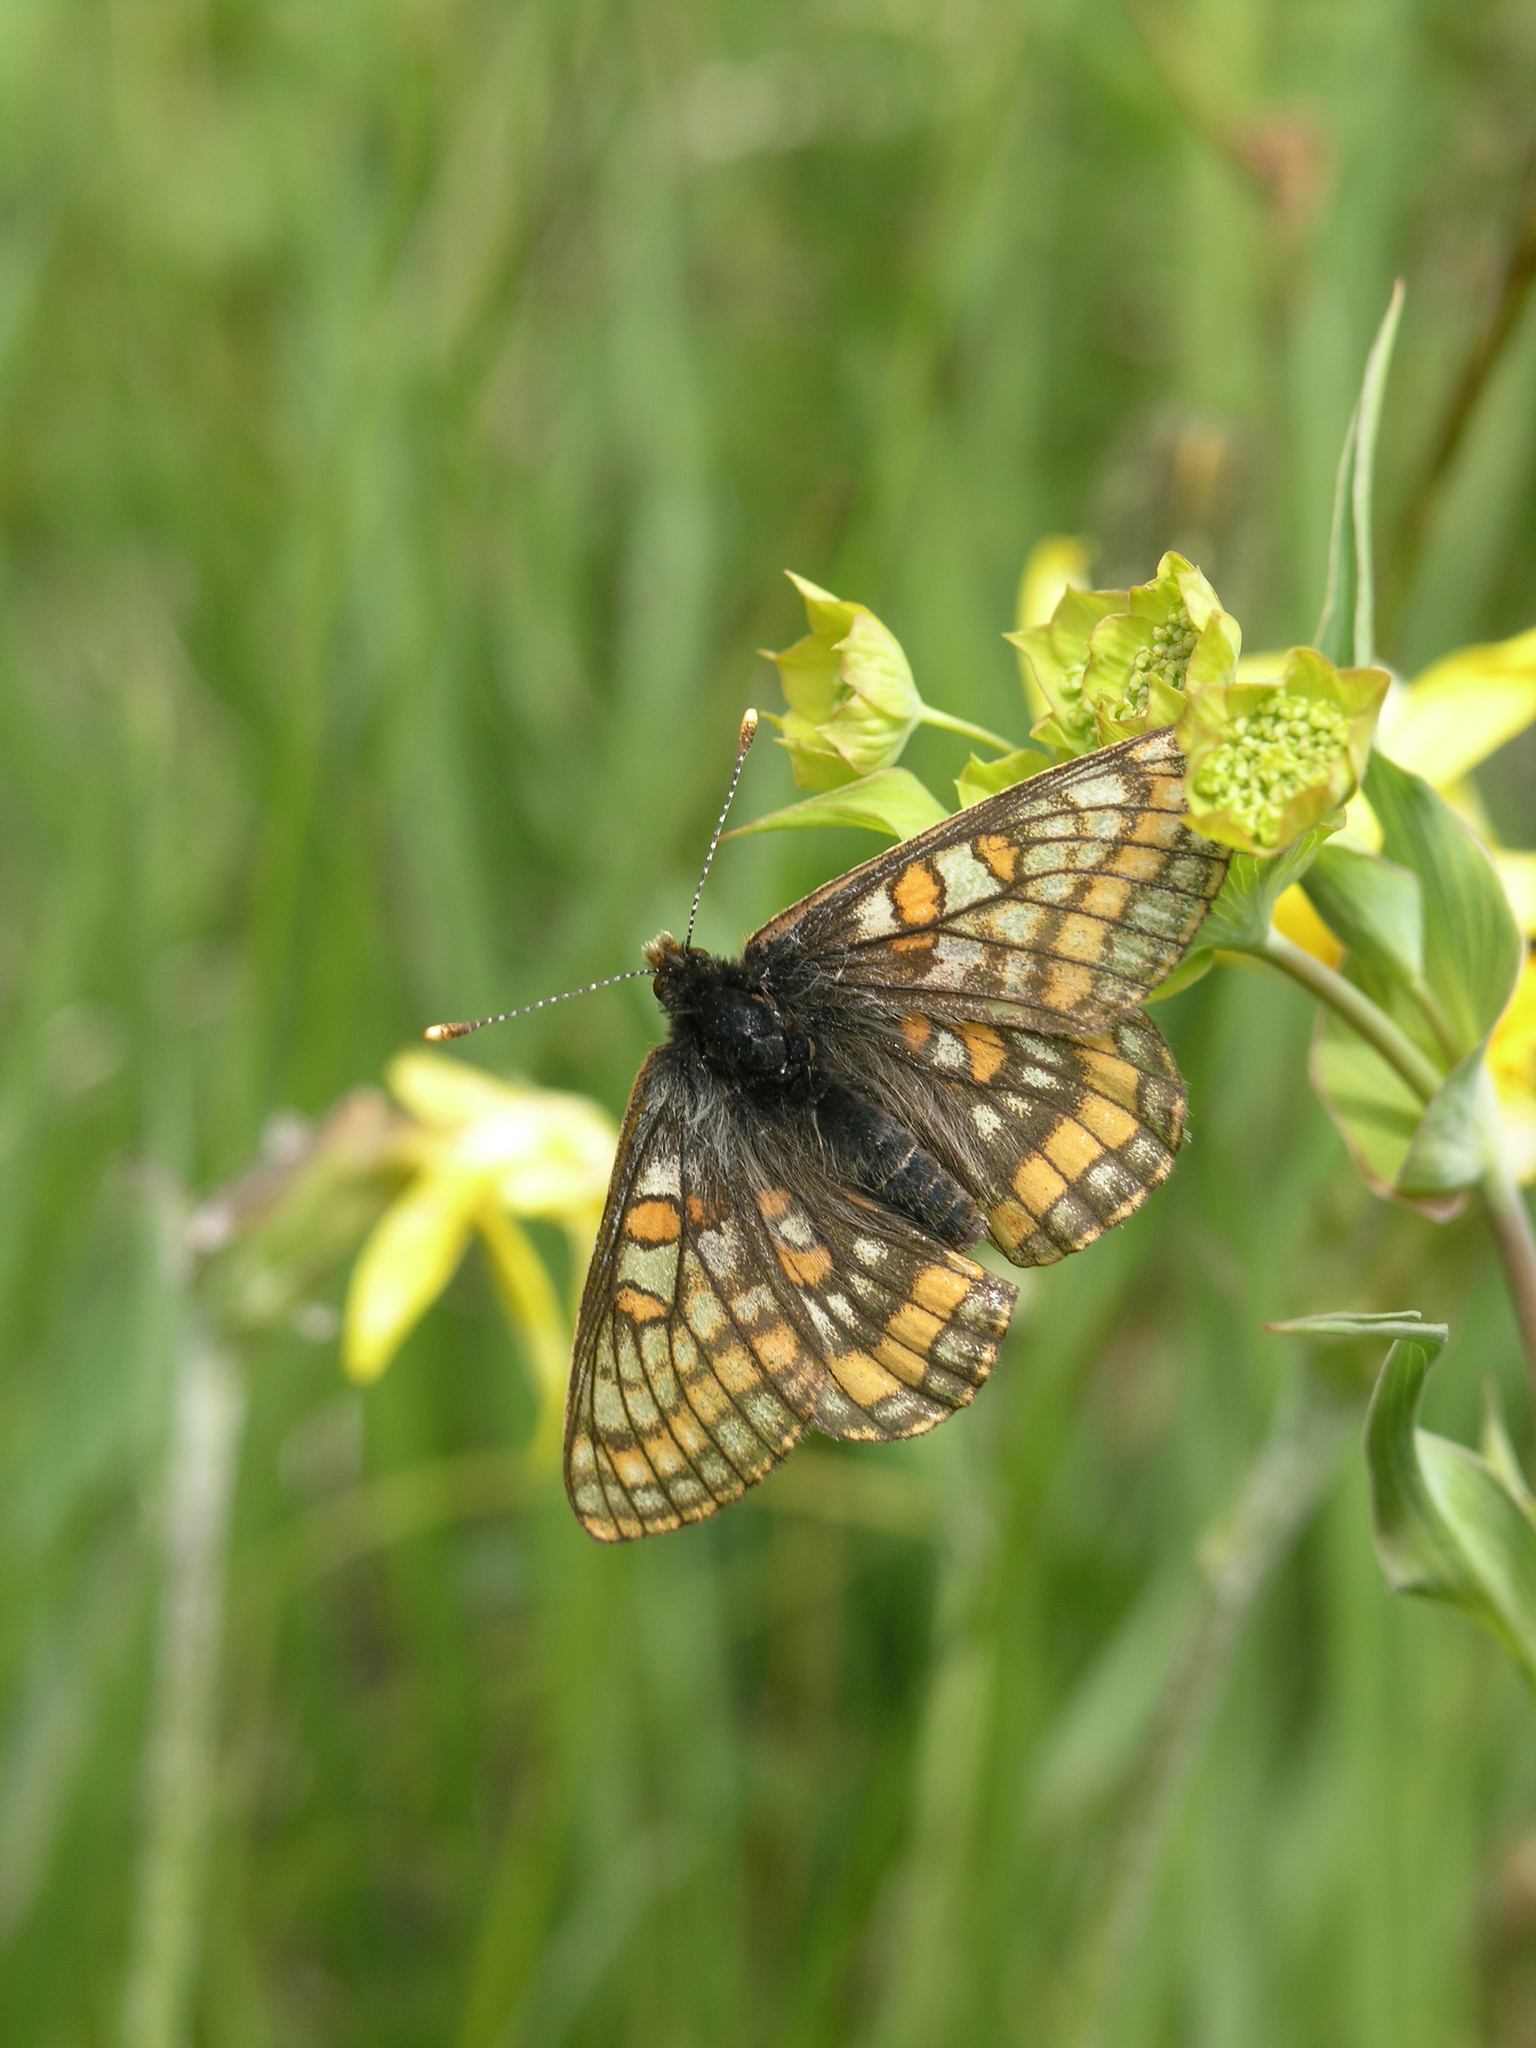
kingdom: Animalia
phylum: Arthropoda
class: Insecta
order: Lepidoptera
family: Nymphalidae
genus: Hypodryas
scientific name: Hypodryas iduna
